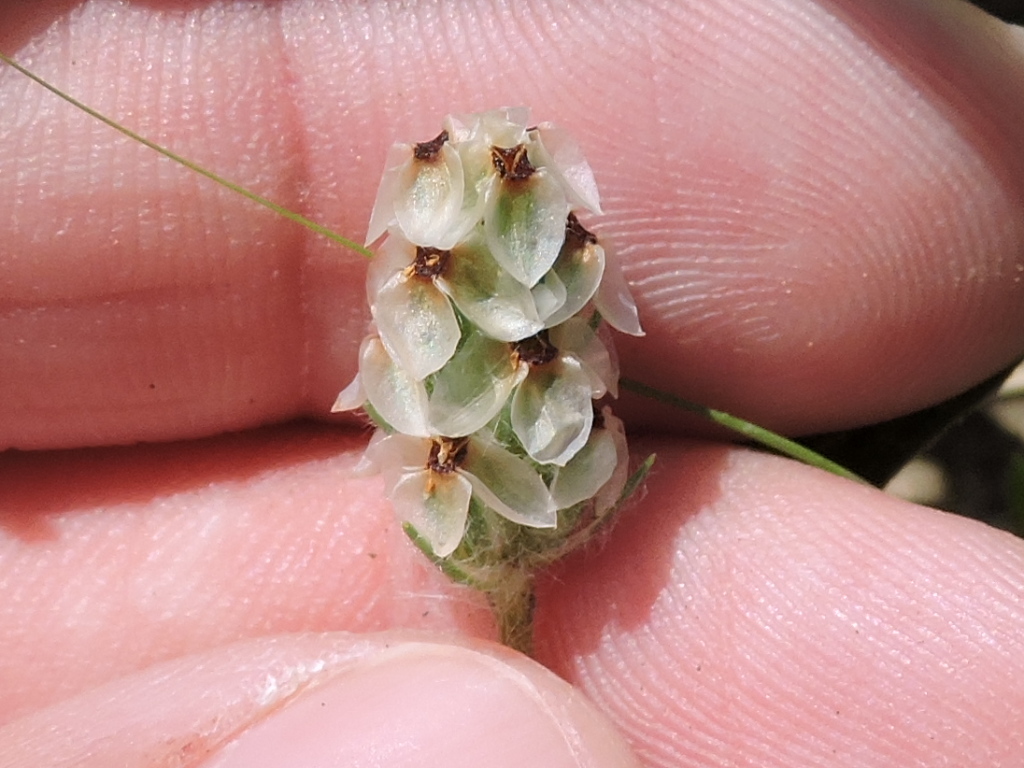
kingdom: Plantae
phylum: Tracheophyta
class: Magnoliopsida
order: Lamiales
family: Plantaginaceae
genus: Plantago
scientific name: Plantago helleri
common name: Heller's plantain
